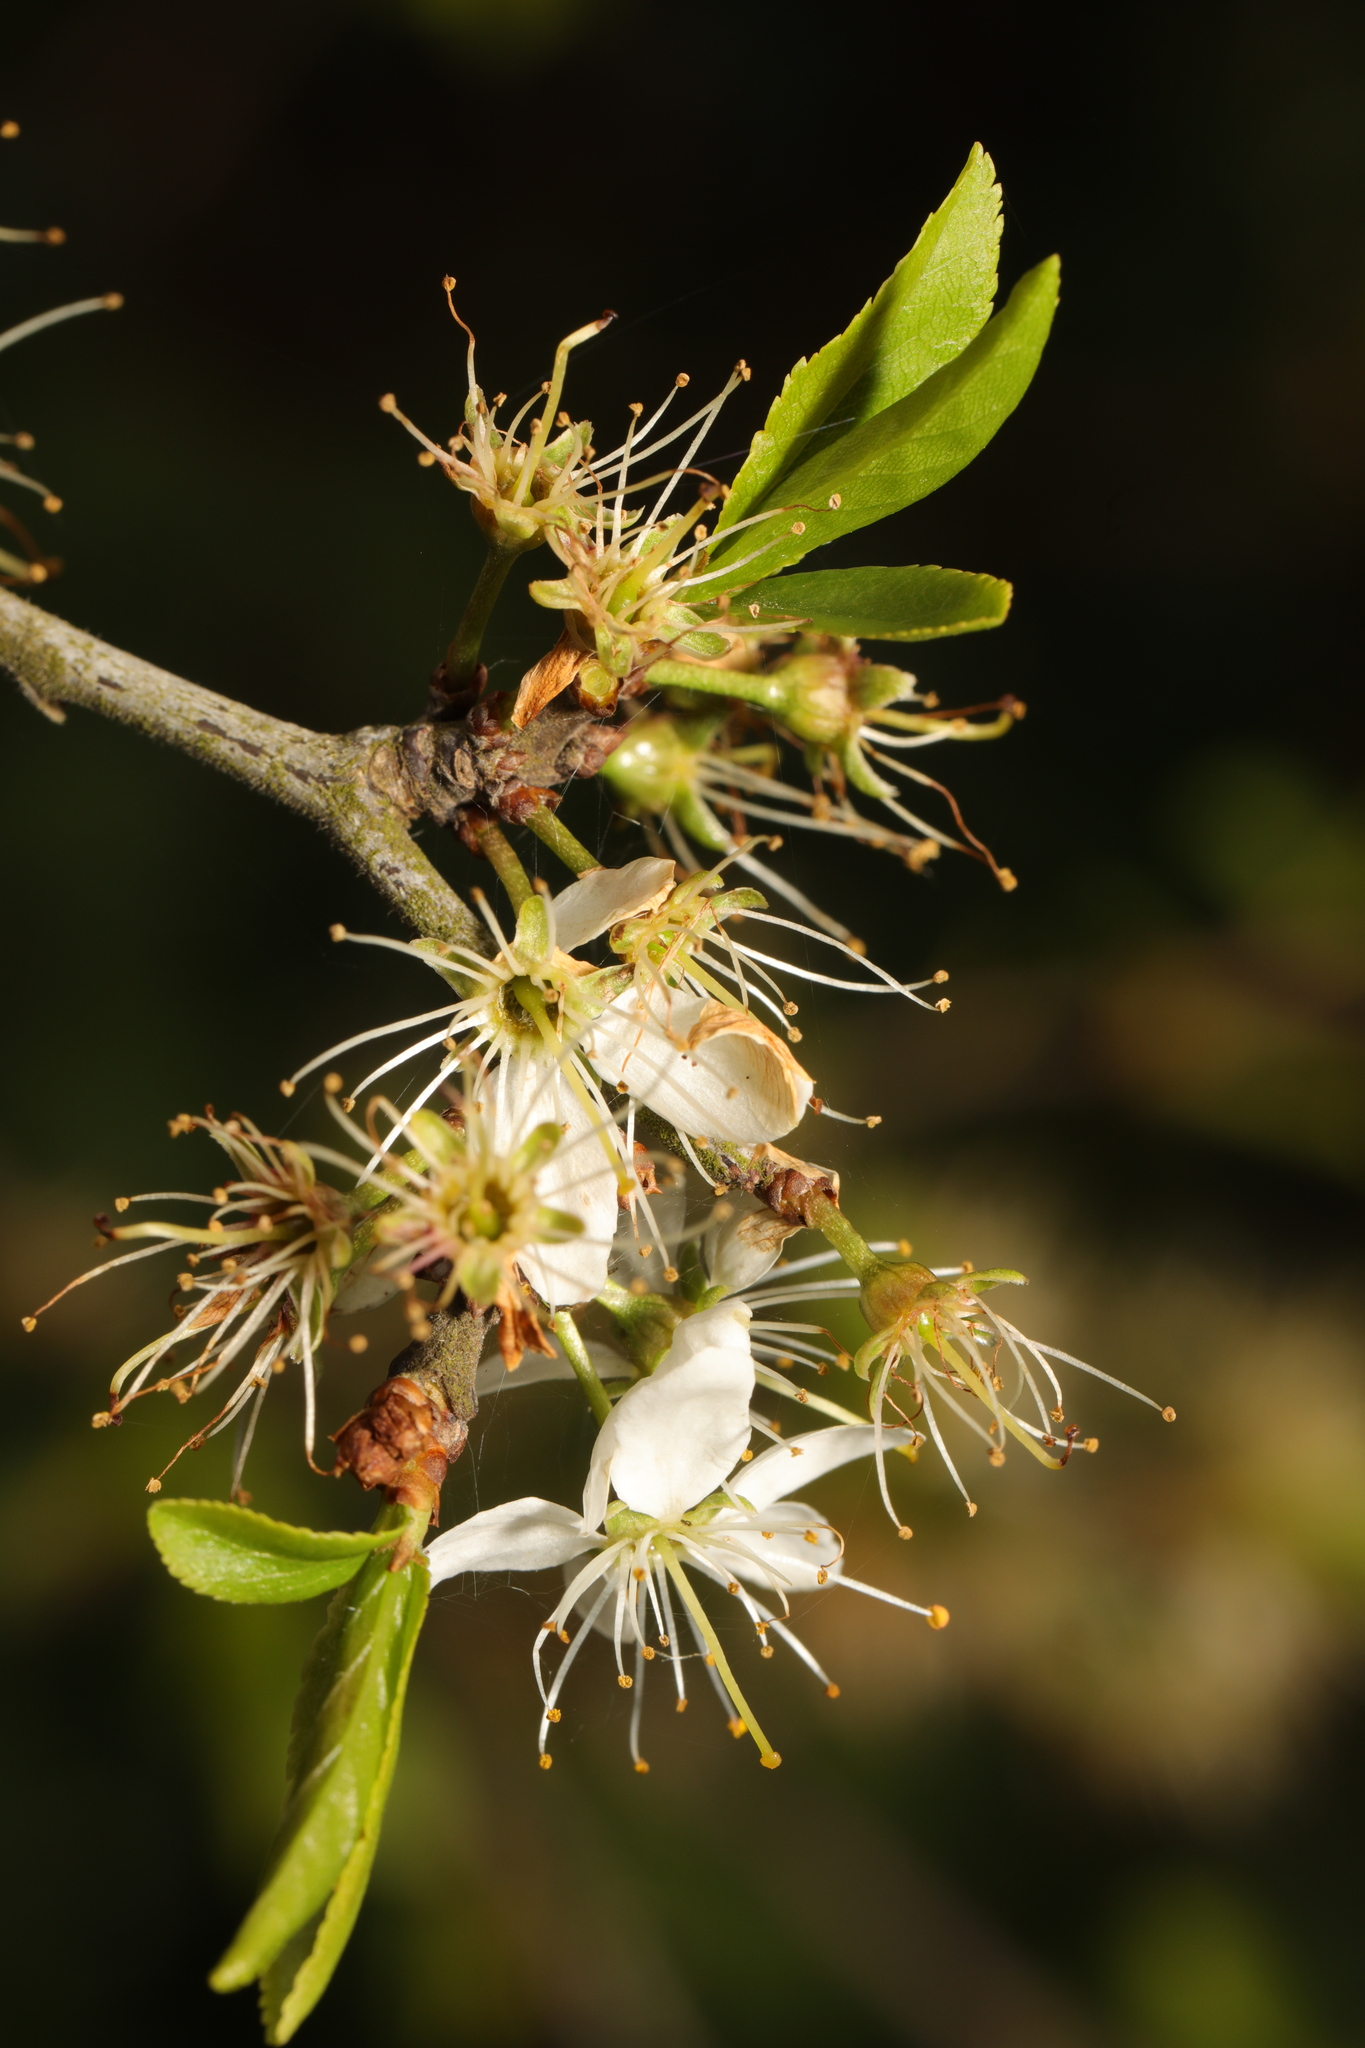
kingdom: Plantae
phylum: Tracheophyta
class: Magnoliopsida
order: Rosales
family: Rosaceae
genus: Prunus
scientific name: Prunus spinosa
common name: Blackthorn
